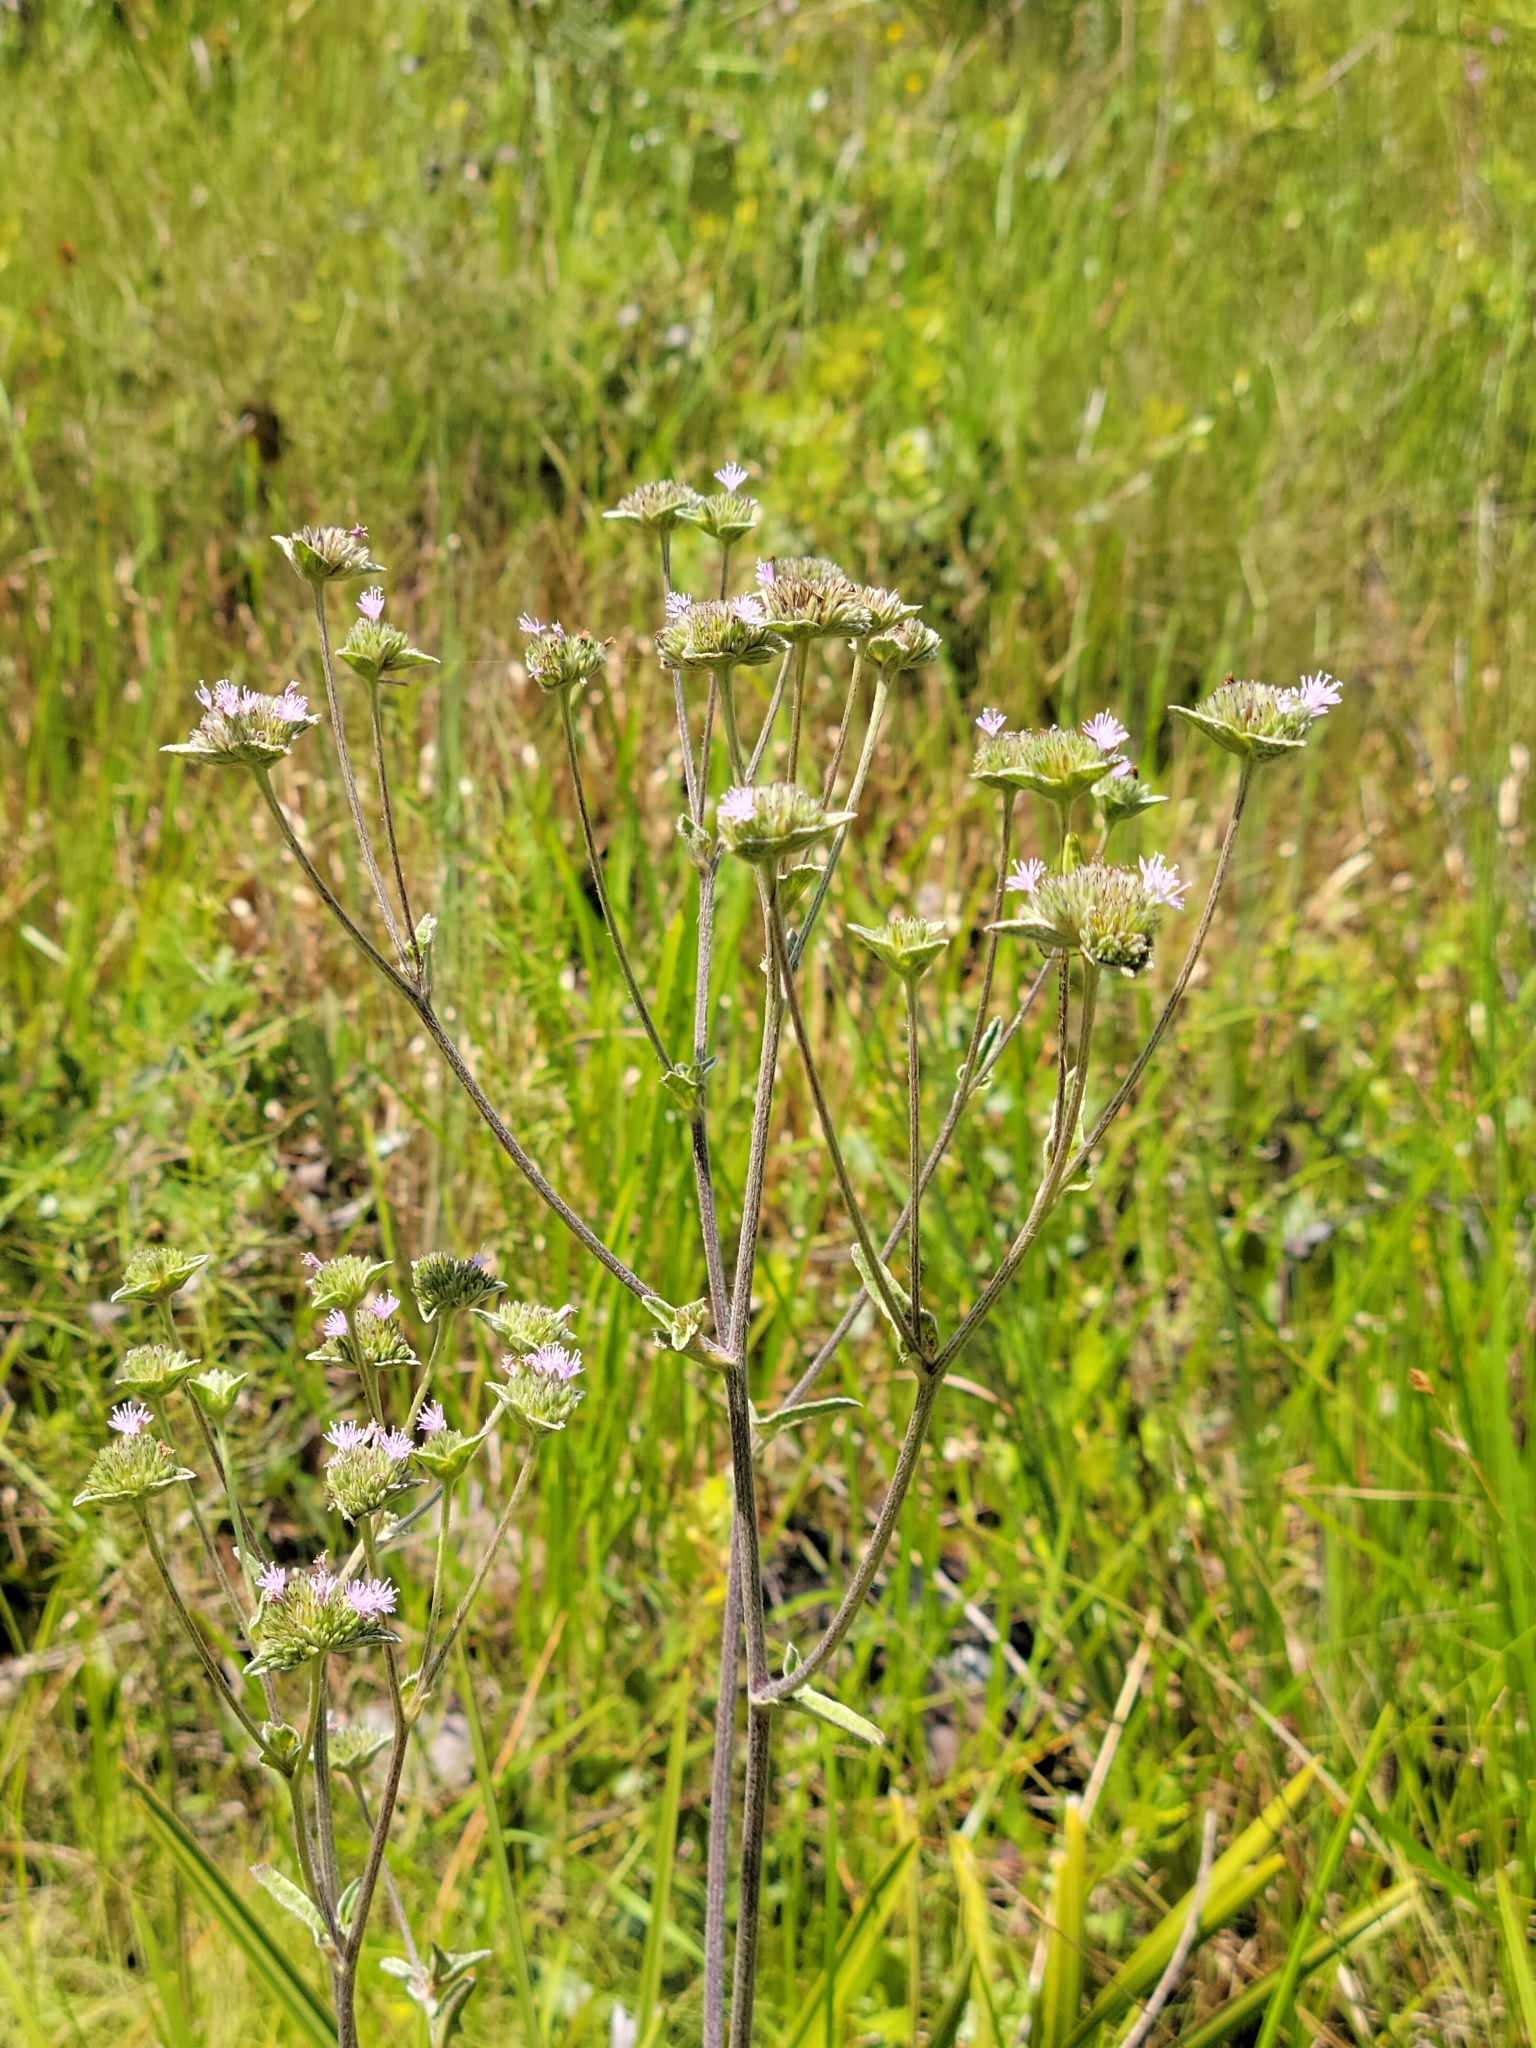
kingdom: Plantae
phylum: Tracheophyta
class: Magnoliopsida
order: Asterales
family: Asteraceae
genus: Elephantopus
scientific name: Elephantopus elatus
